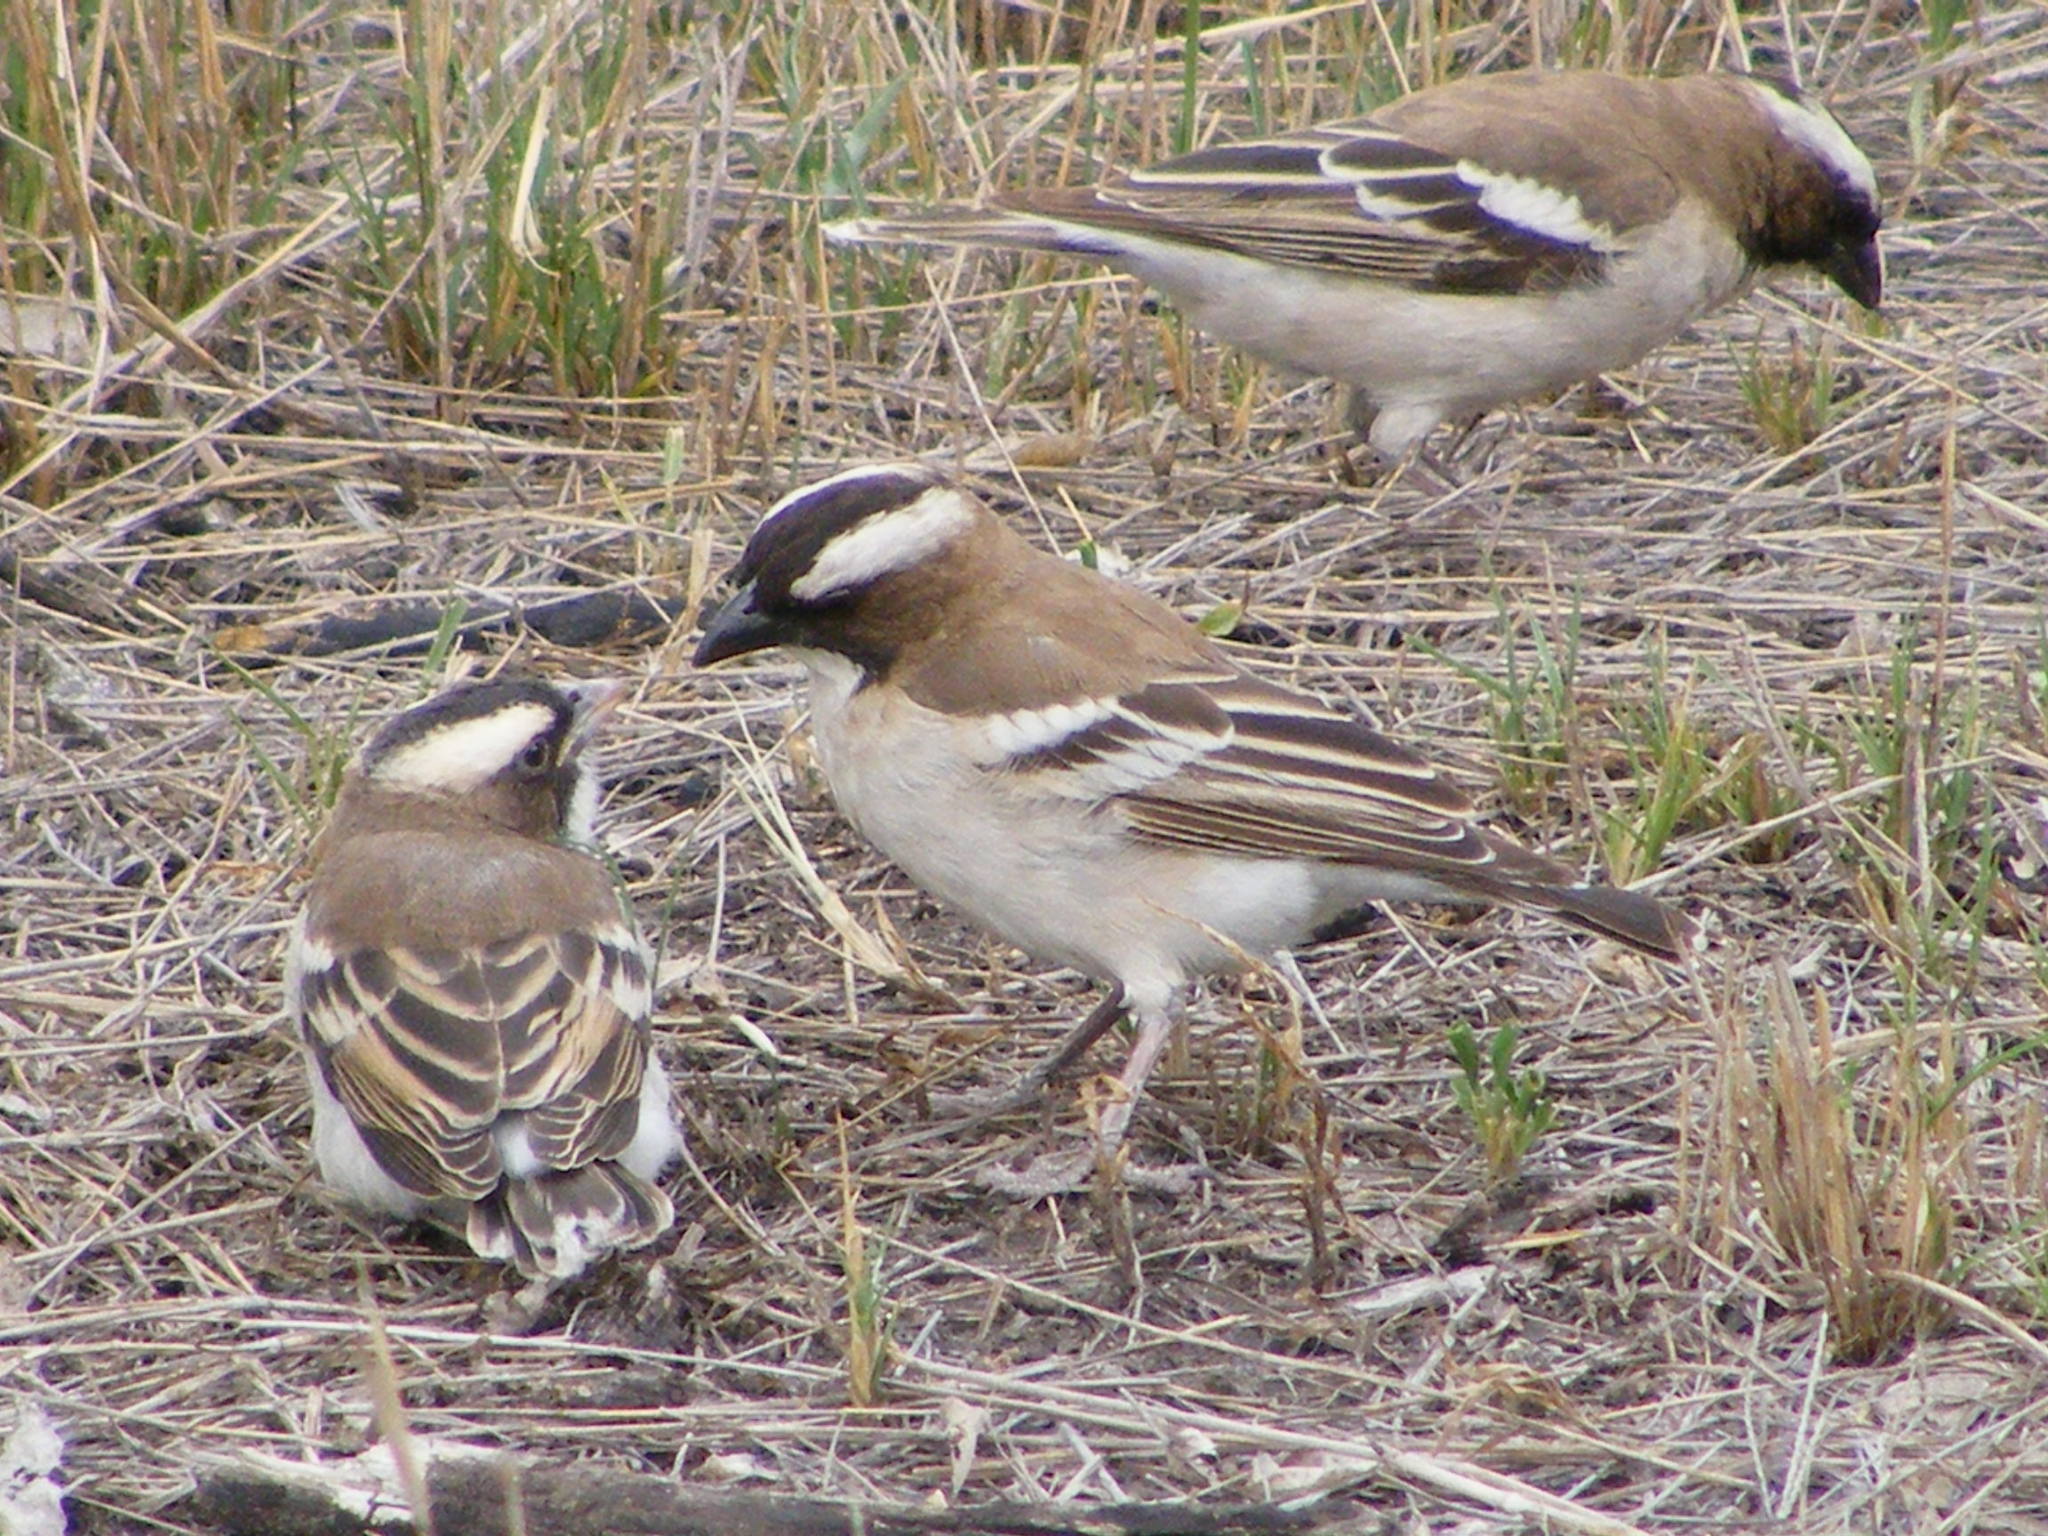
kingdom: Animalia
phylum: Chordata
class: Aves
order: Passeriformes
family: Passeridae
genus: Plocepasser
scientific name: Plocepasser mahali
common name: White-browed sparrow-weaver
